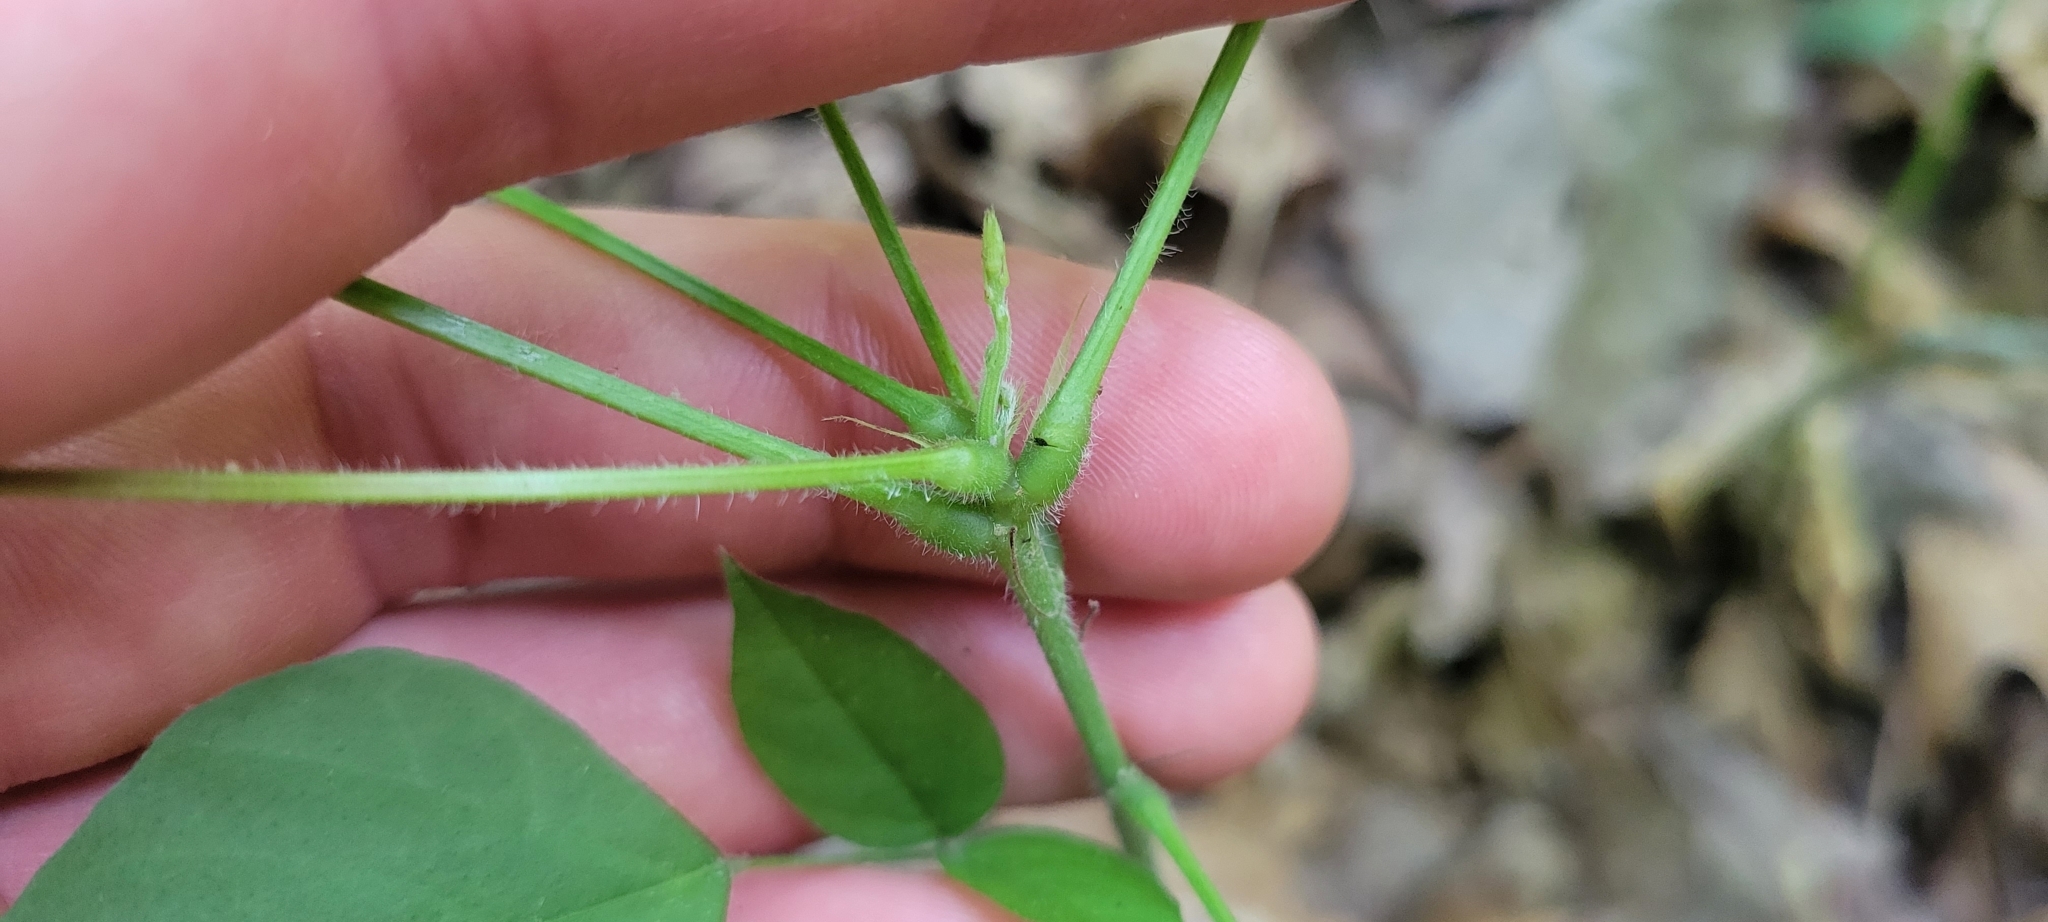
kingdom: Plantae
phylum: Tracheophyta
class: Magnoliopsida
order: Fabales
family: Fabaceae
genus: Hylodesmum
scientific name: Hylodesmum glutinosum
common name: Clustered-leaved tick-trefoil
